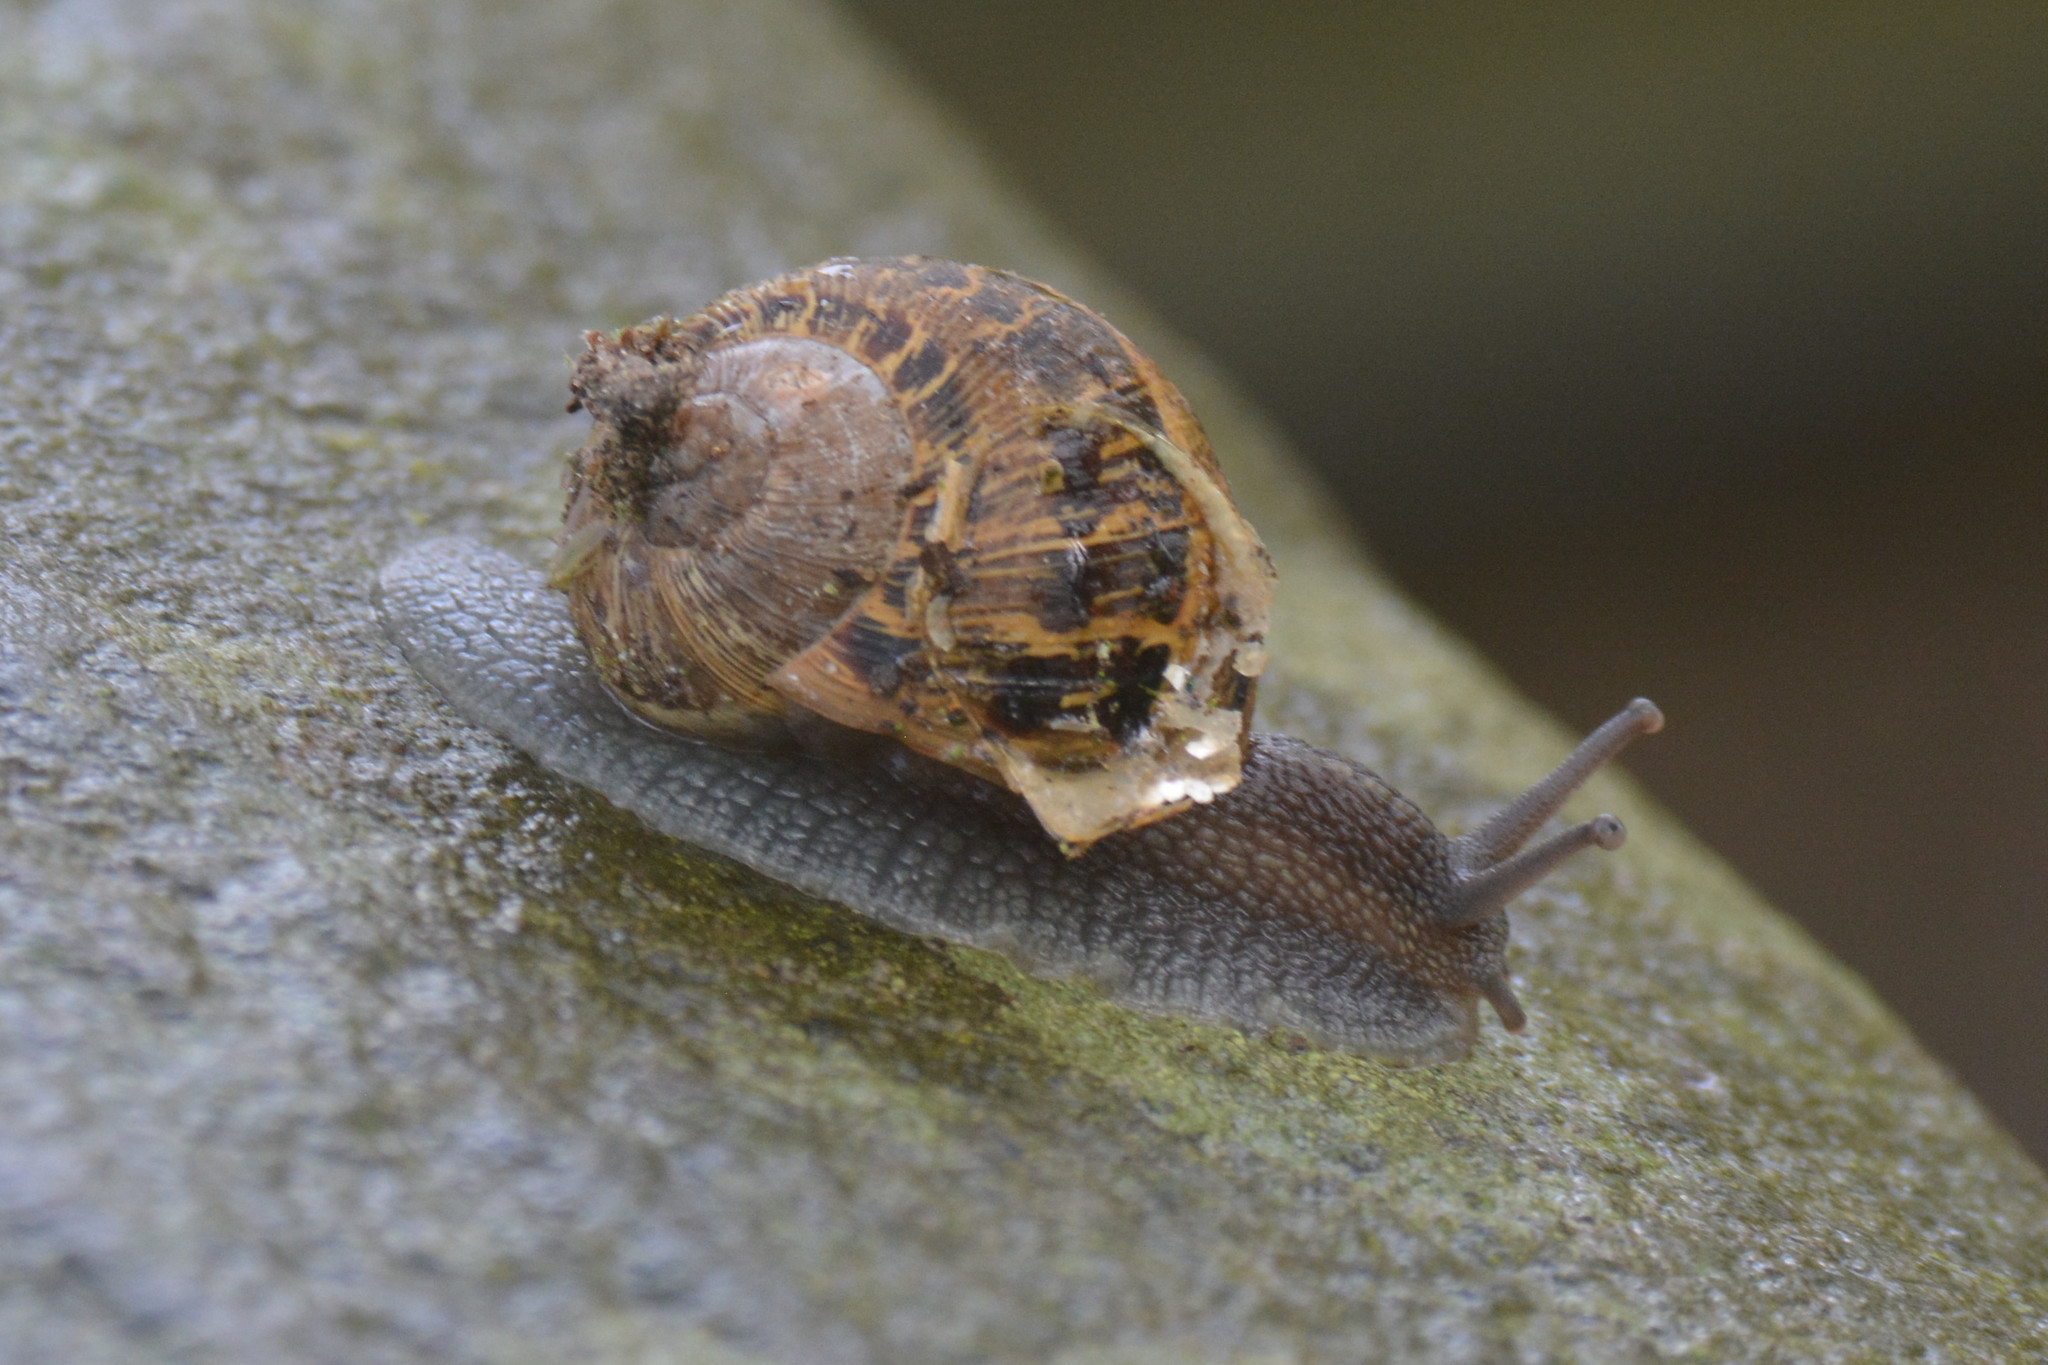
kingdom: Animalia
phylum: Mollusca
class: Gastropoda
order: Stylommatophora
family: Helicidae
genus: Cornu
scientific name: Cornu aspersum
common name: Brown garden snail
